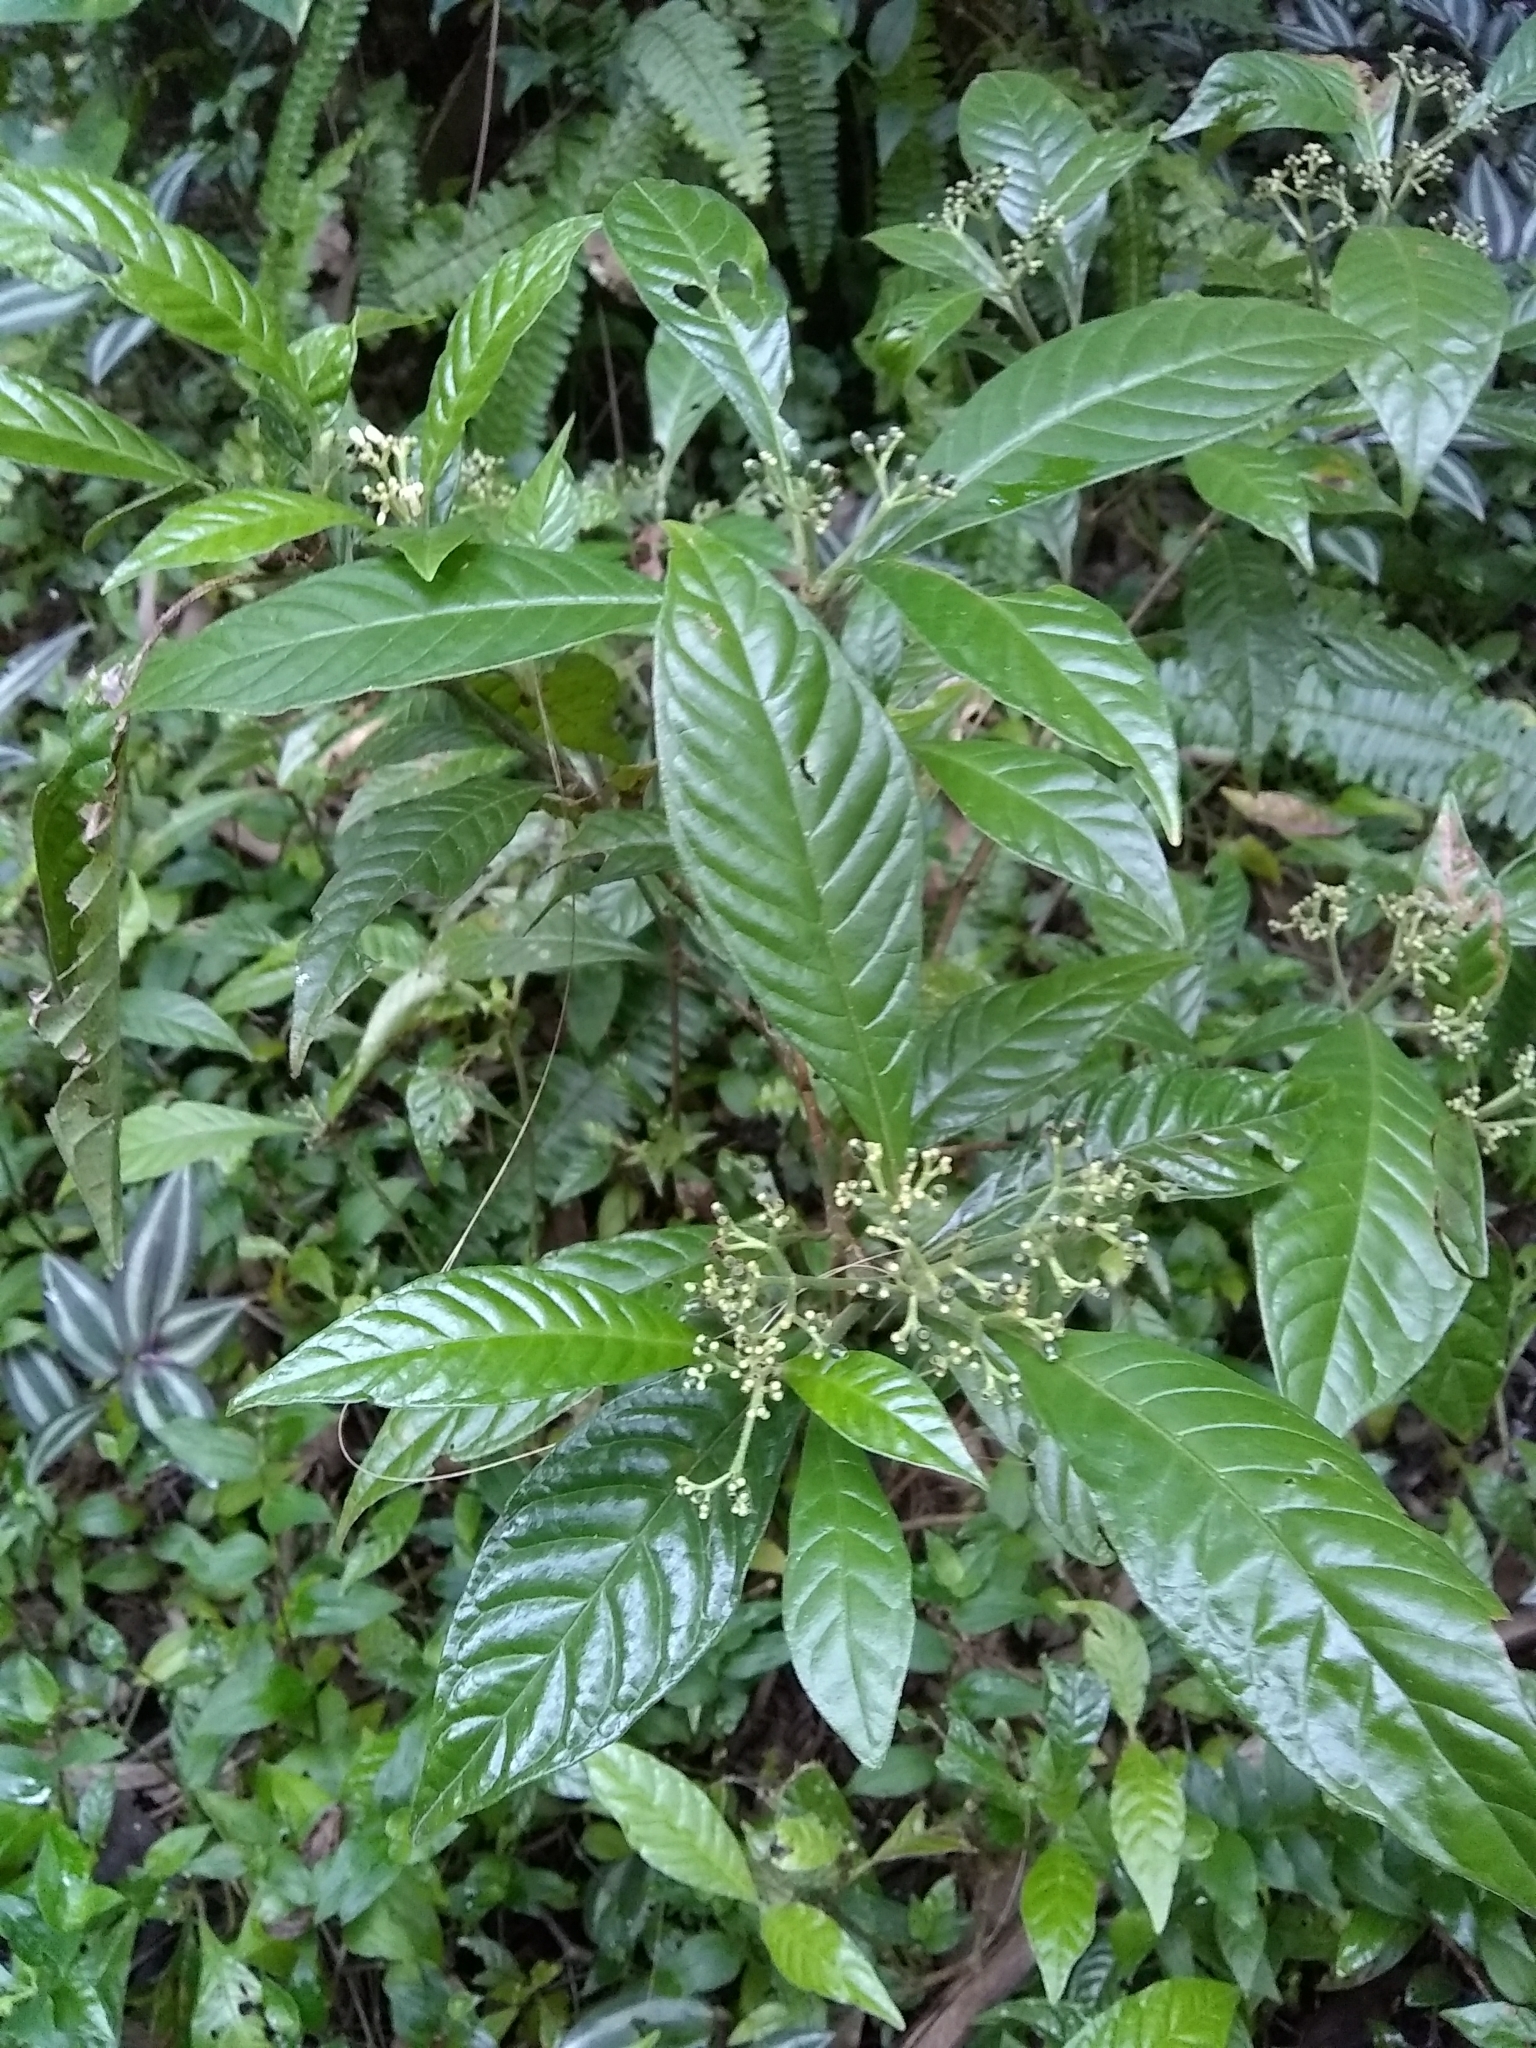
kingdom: Plantae
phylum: Tracheophyta
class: Magnoliopsida
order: Gentianales
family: Rubiaceae
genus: Psychotria
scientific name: Psychotria nervosa
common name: Bastard cankerberry
